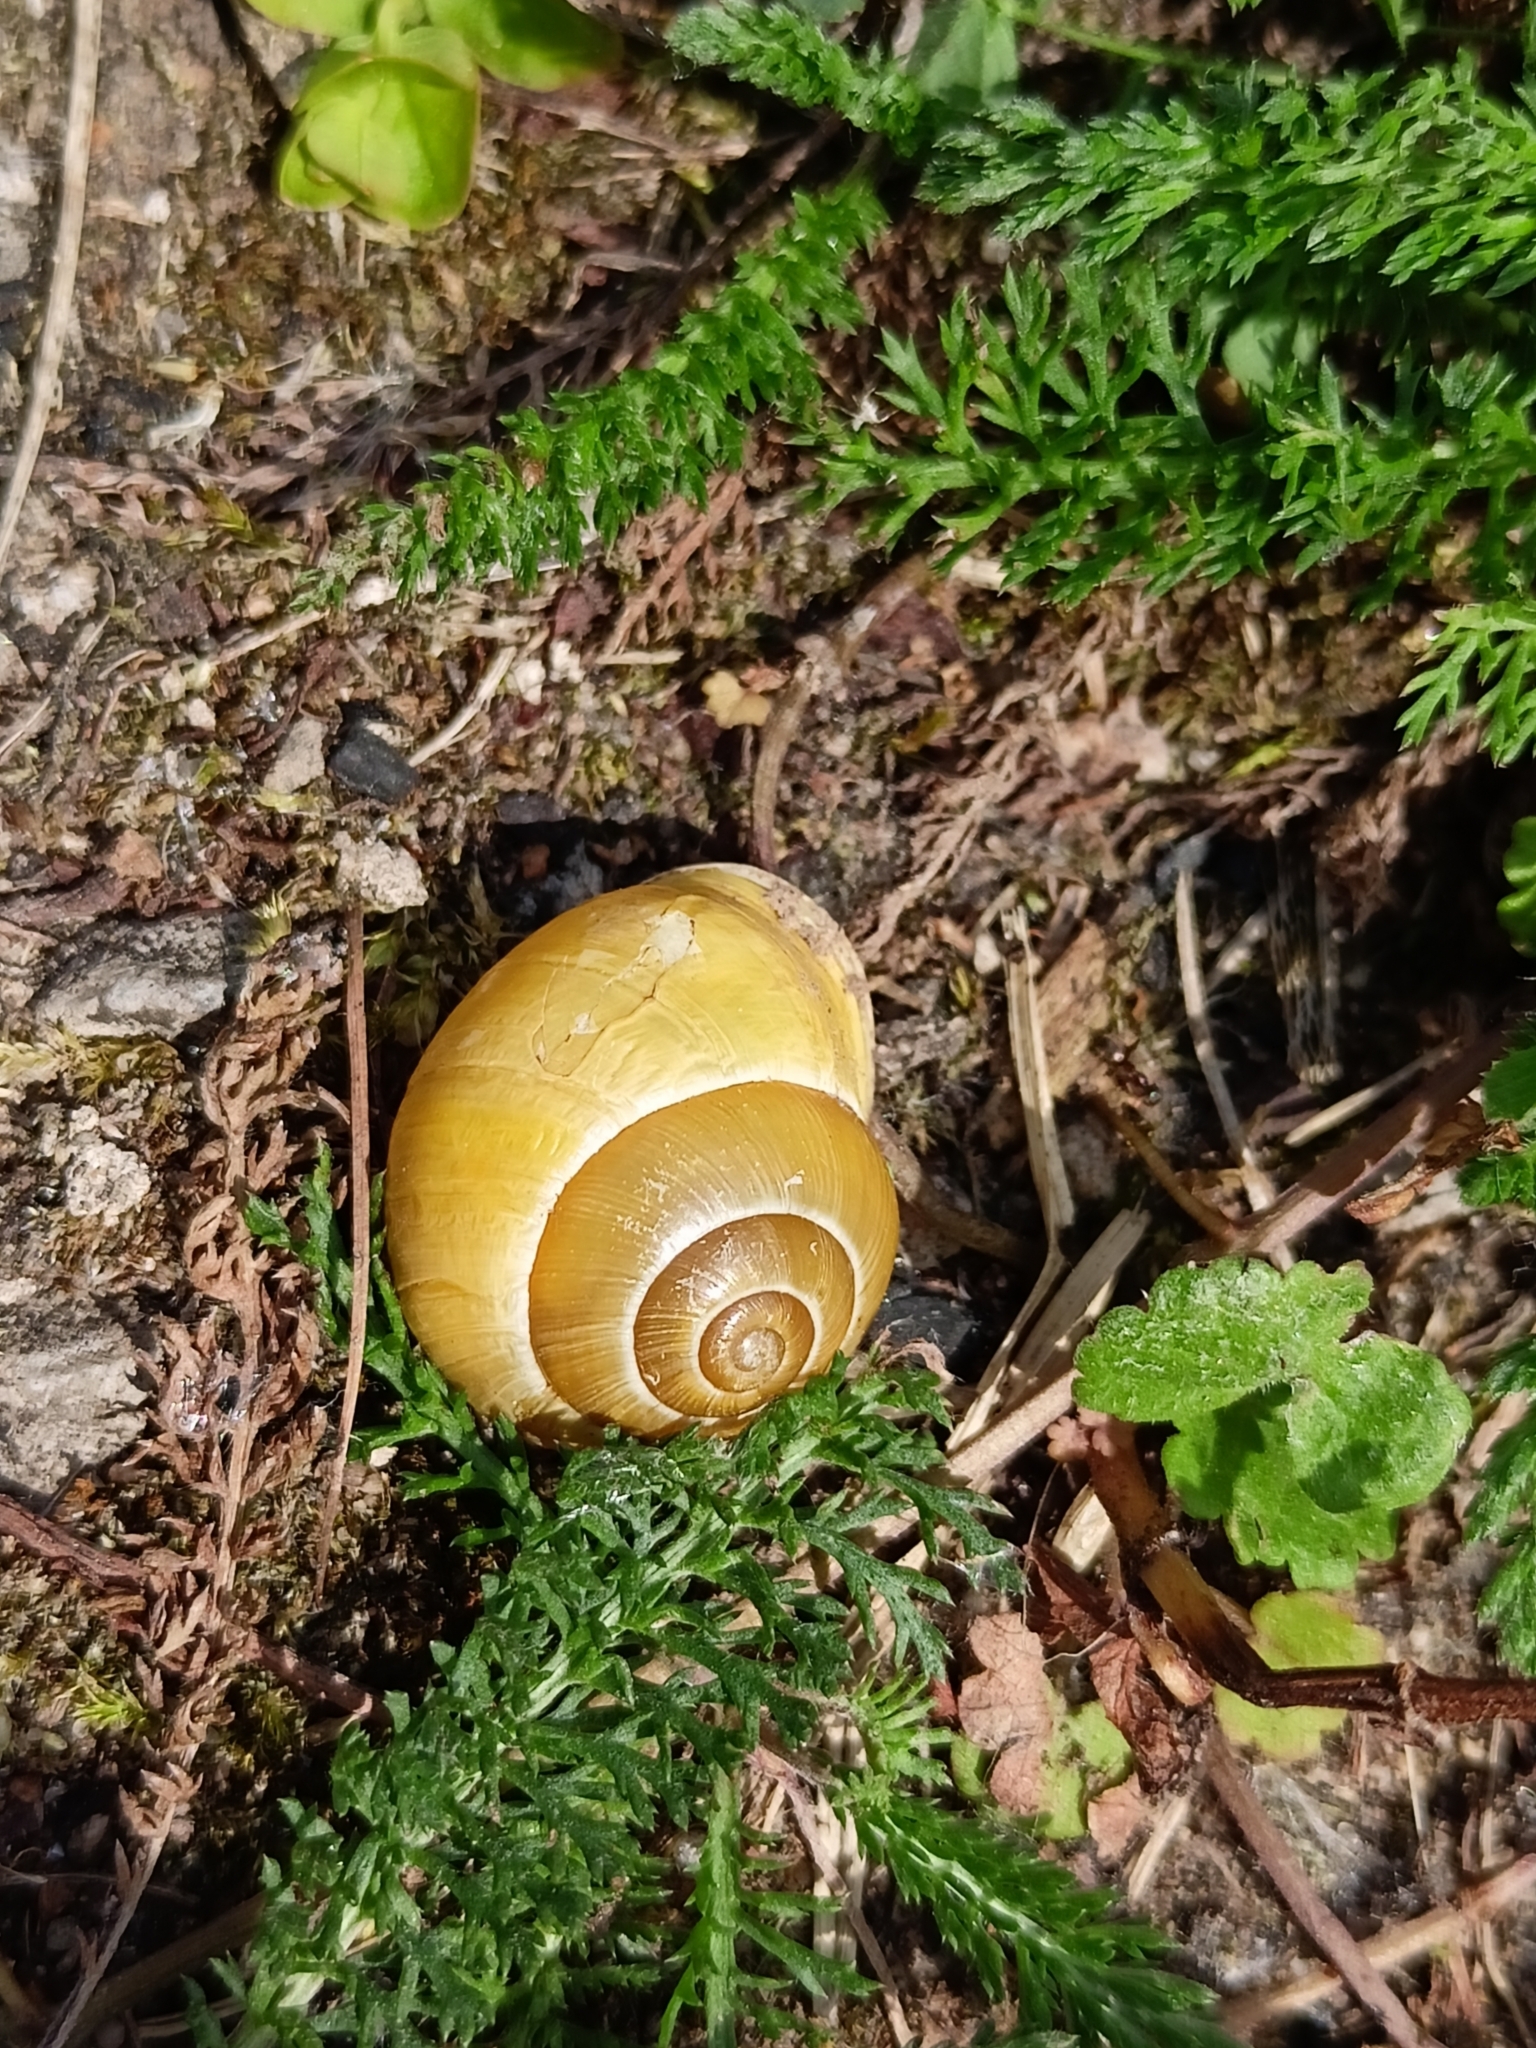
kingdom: Animalia
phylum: Mollusca
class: Gastropoda
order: Stylommatophora
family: Helicidae
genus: Cepaea
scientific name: Cepaea hortensis
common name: White-lip gardensnail
